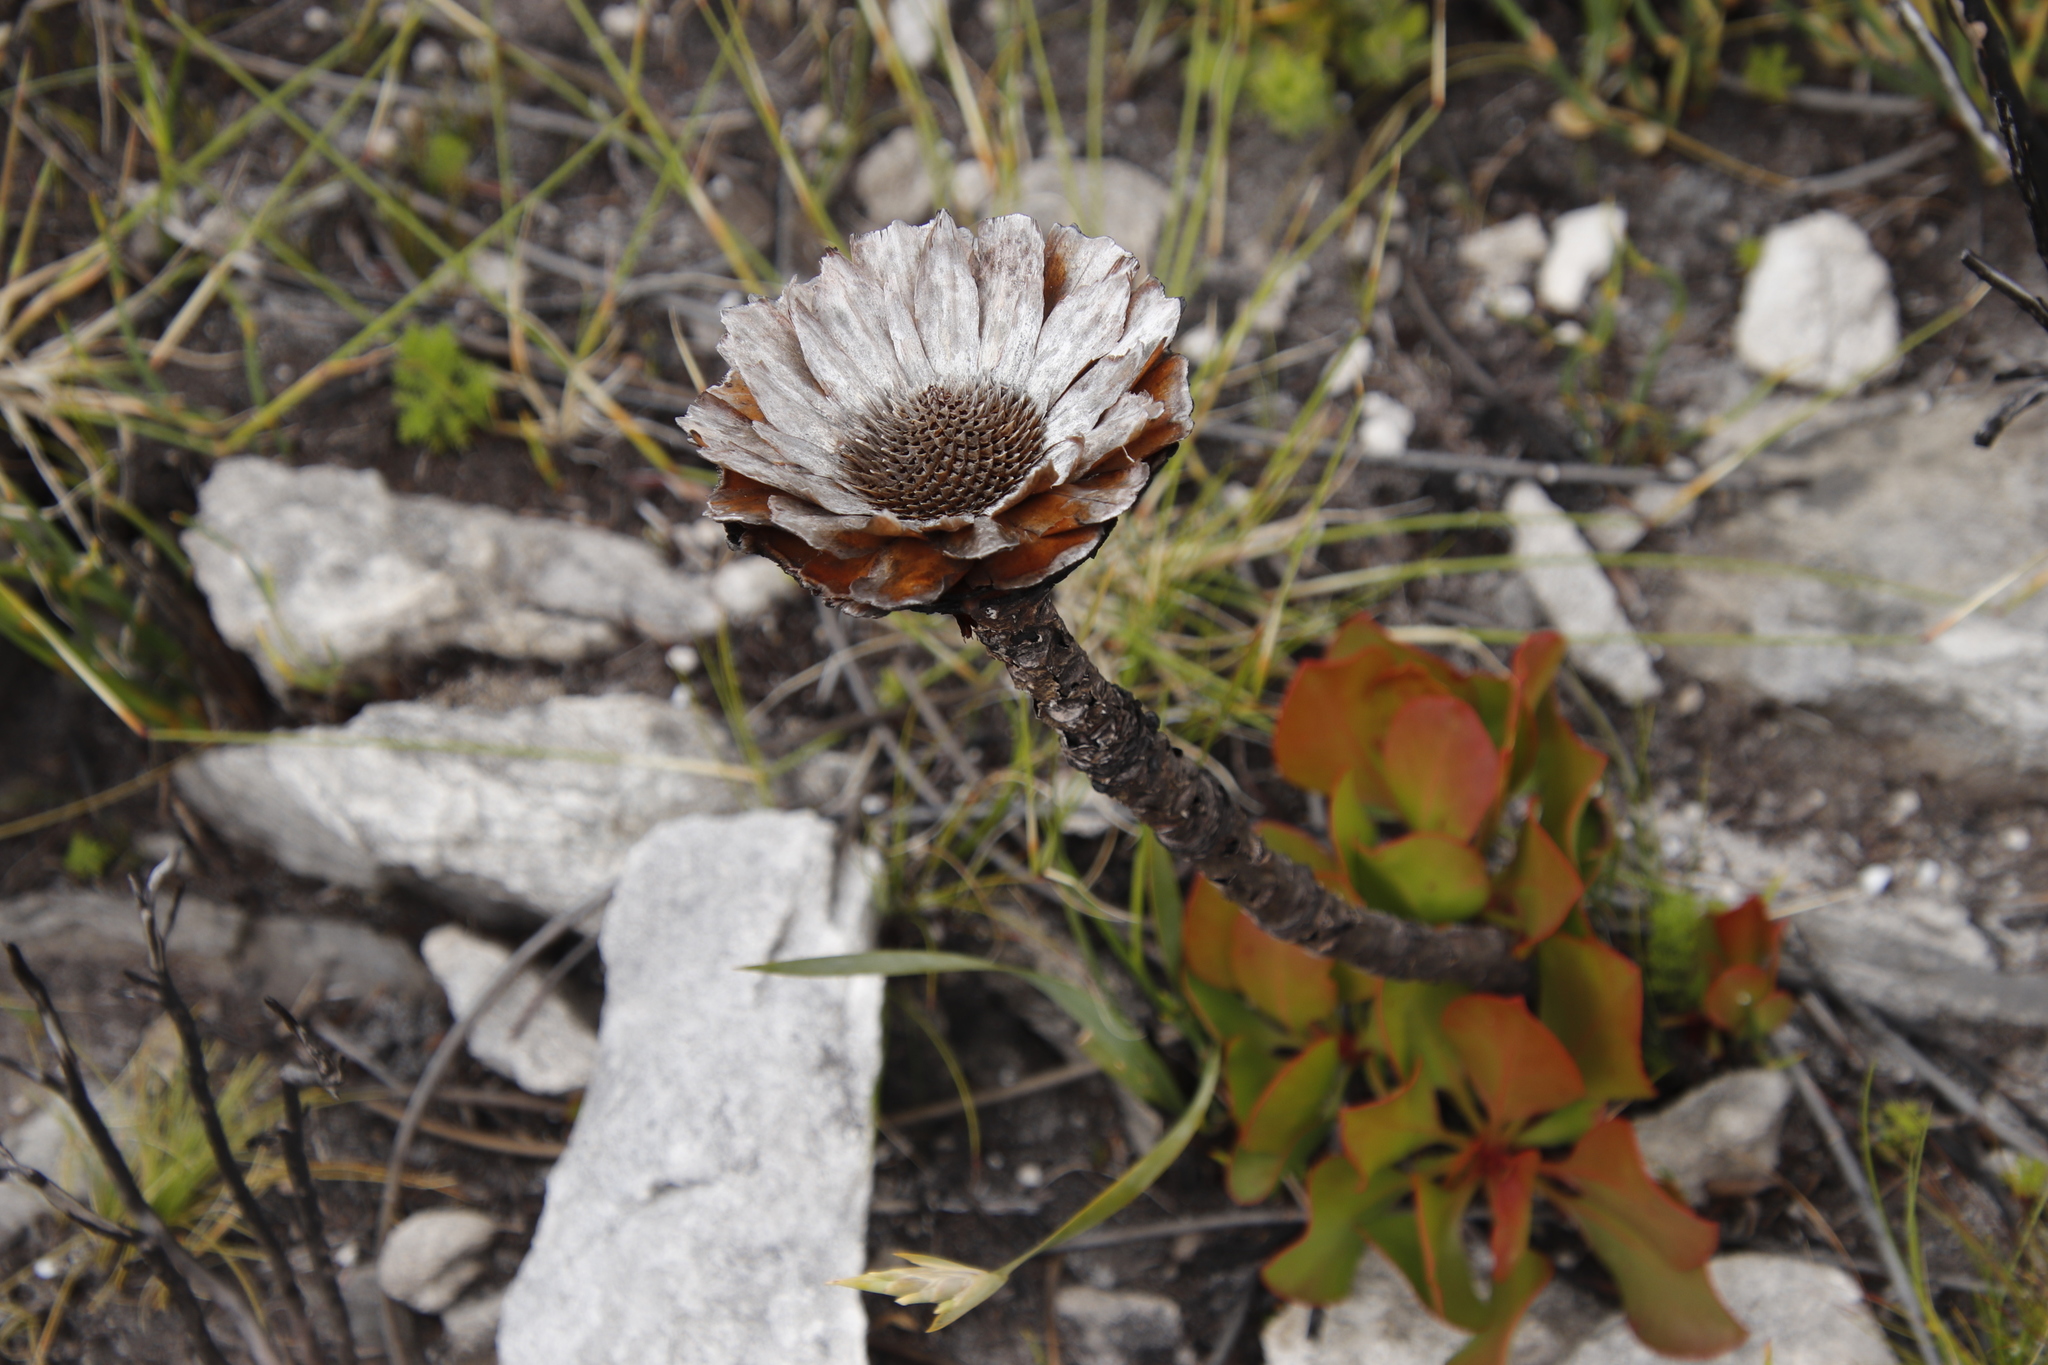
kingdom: Plantae
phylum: Tracheophyta
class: Magnoliopsida
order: Proteales
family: Proteaceae
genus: Protea
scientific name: Protea cynaroides
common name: King protea
